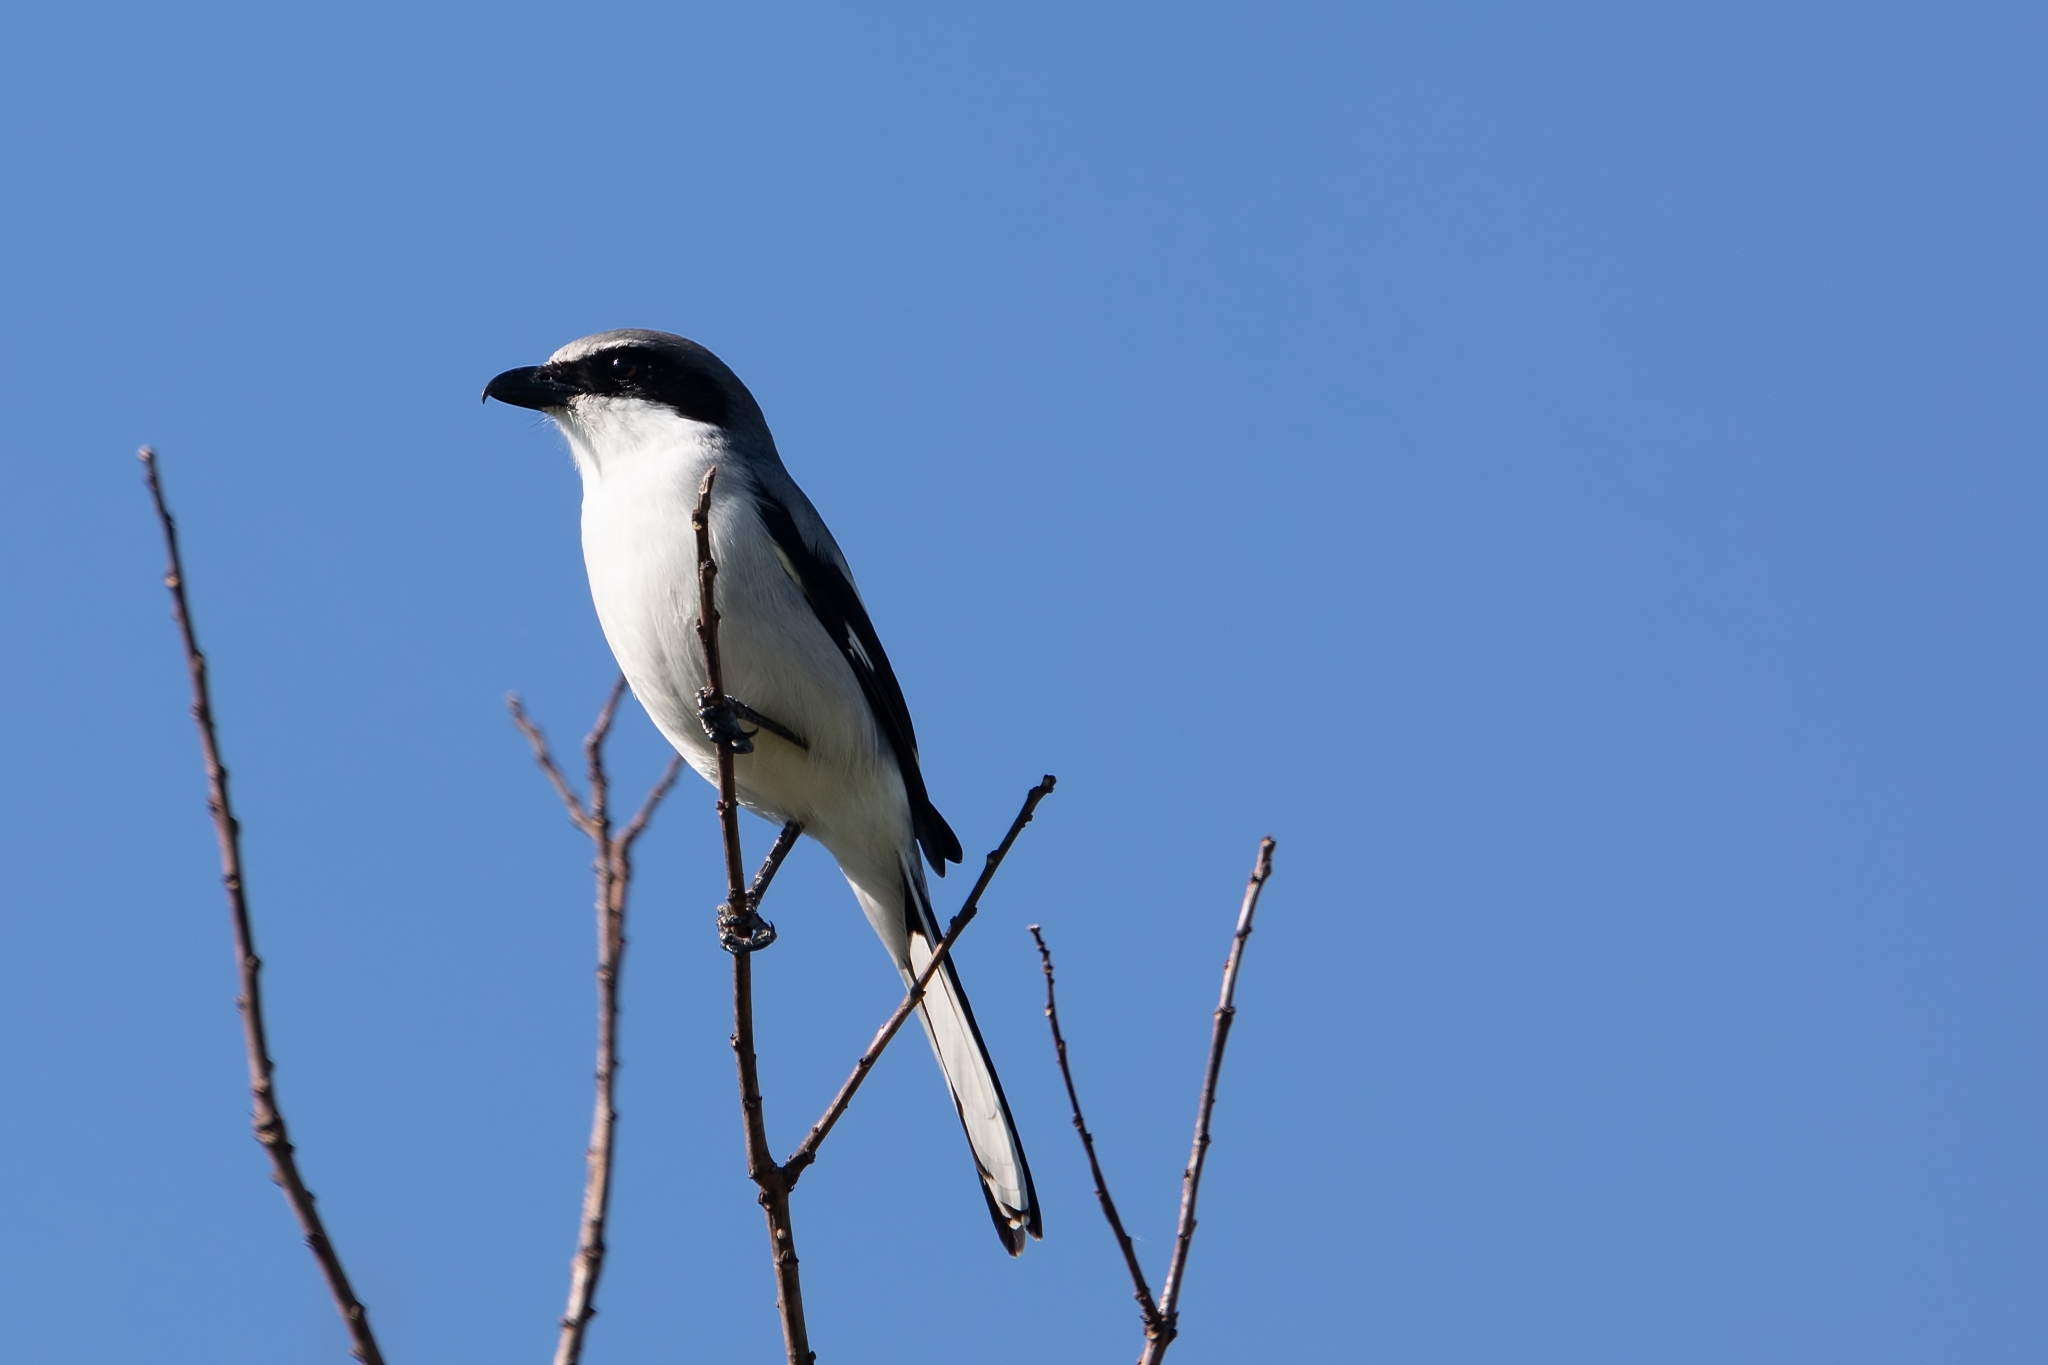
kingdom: Animalia
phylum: Chordata
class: Aves
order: Passeriformes
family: Laniidae
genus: Lanius
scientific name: Lanius ludovicianus
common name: Loggerhead shrike
